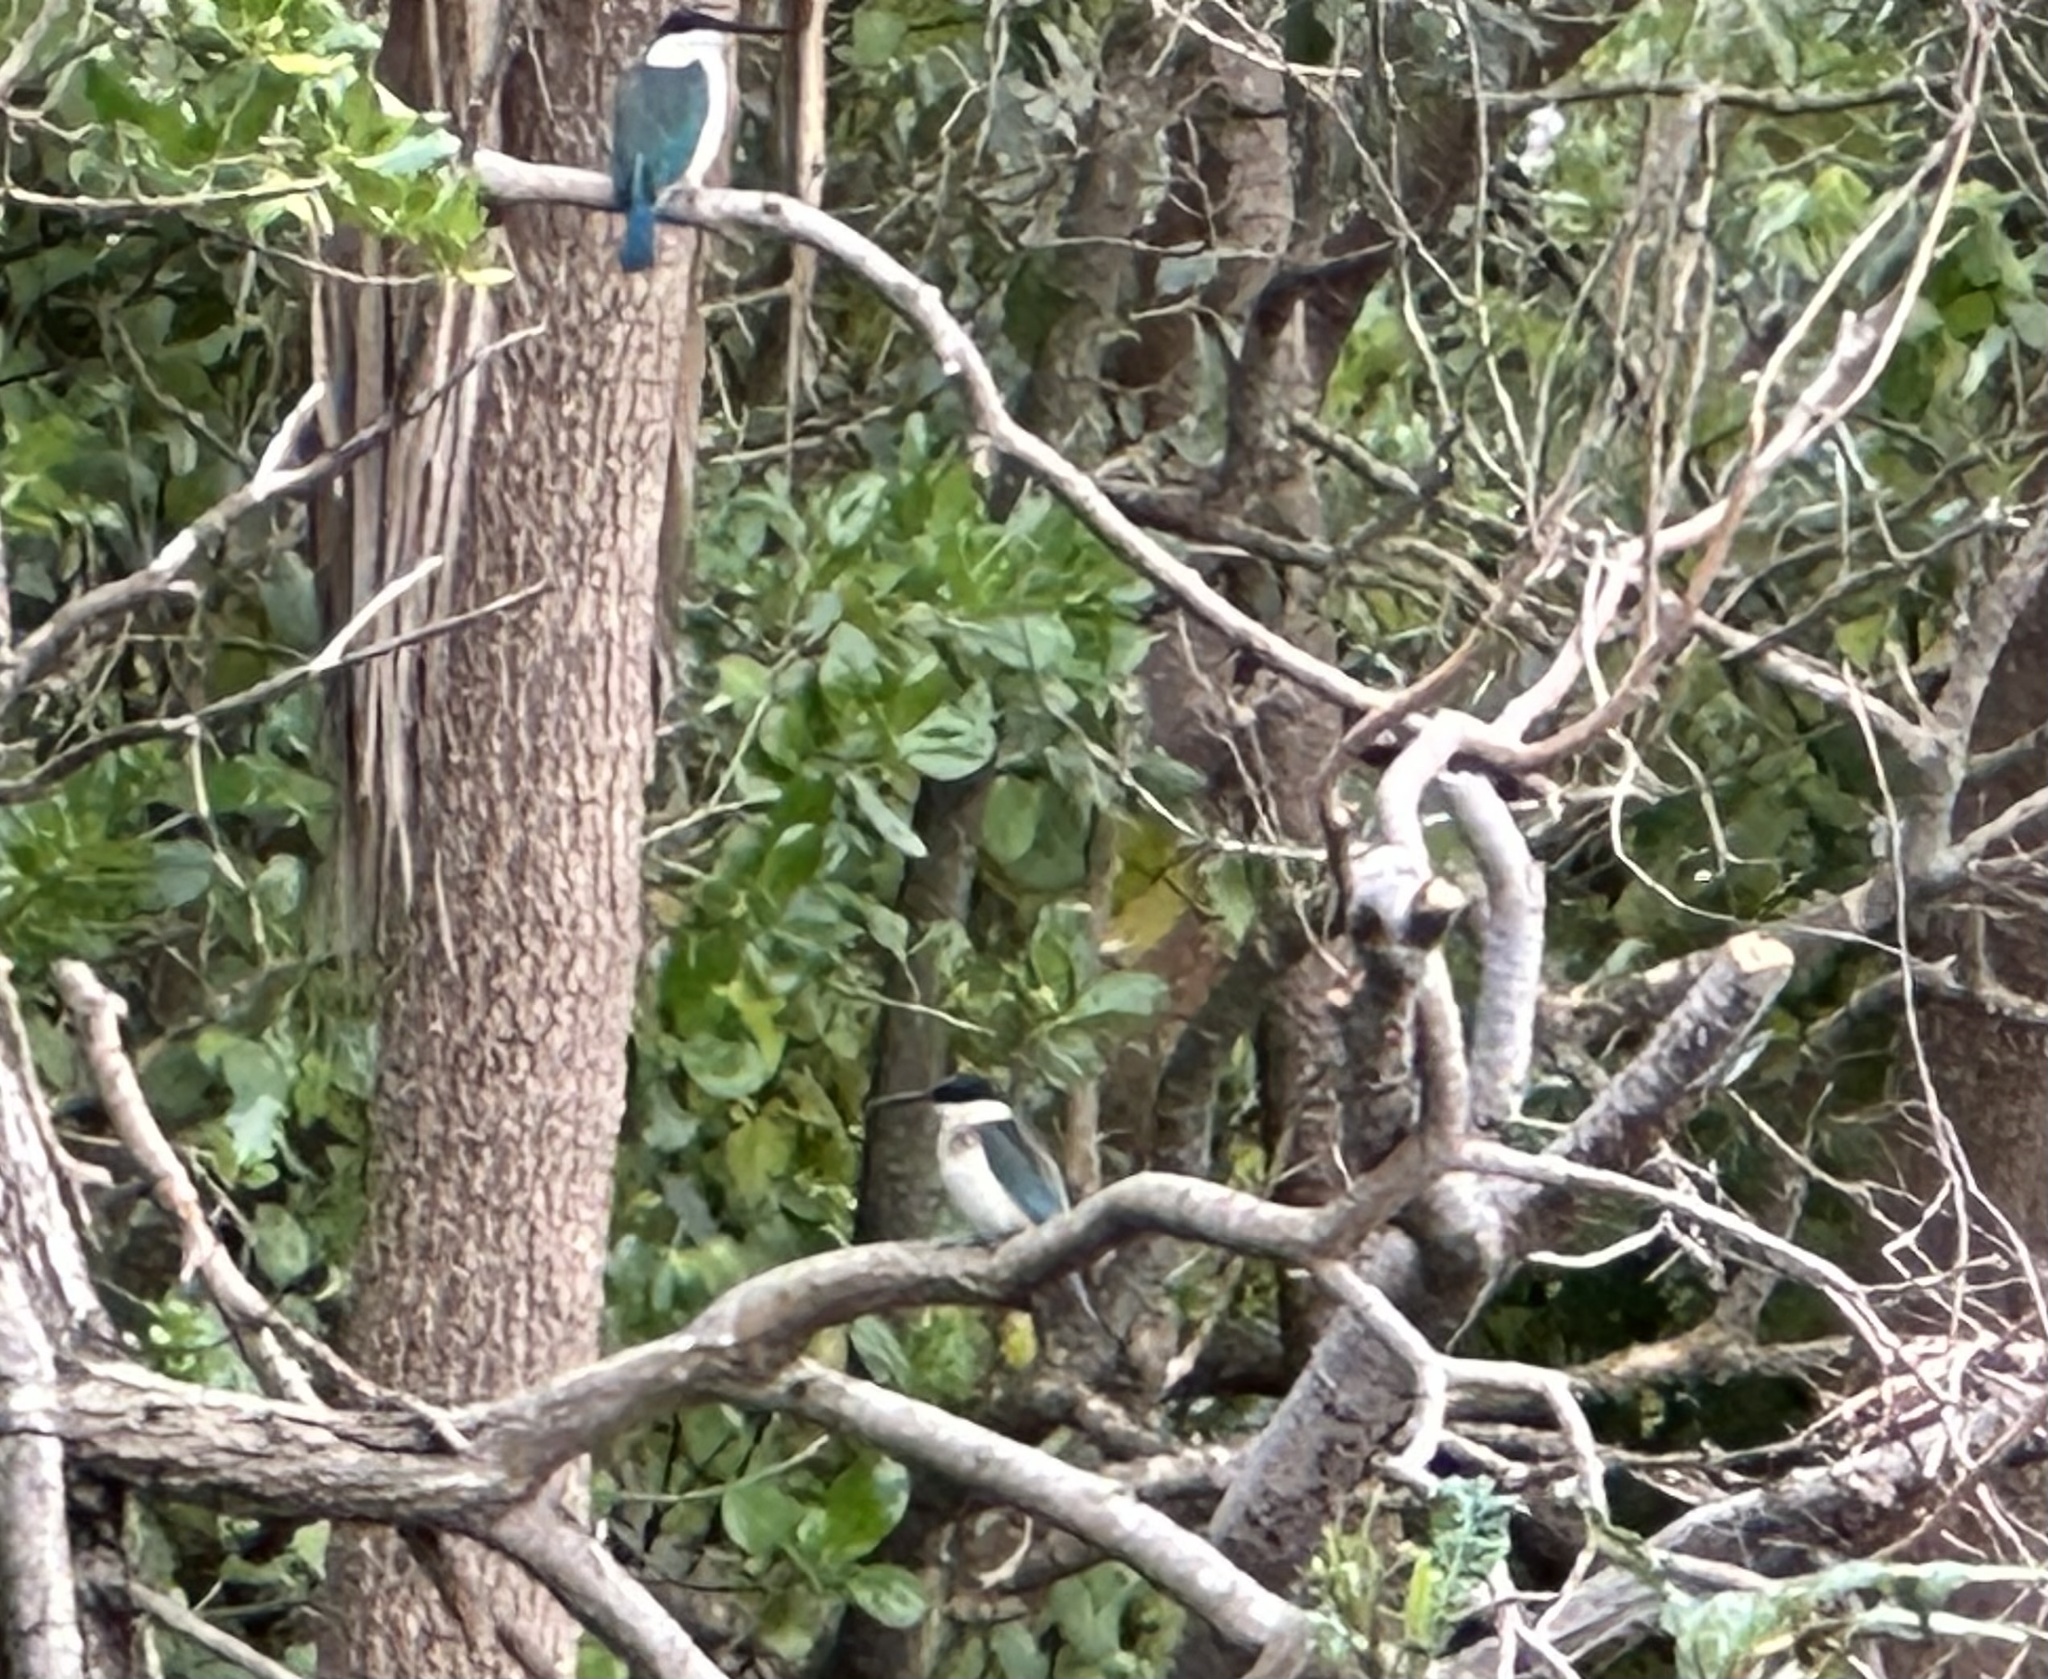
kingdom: Animalia
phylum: Chordata
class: Aves
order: Coraciiformes
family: Alcedinidae
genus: Todiramphus
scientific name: Todiramphus sanctus
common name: Sacred kingfisher
